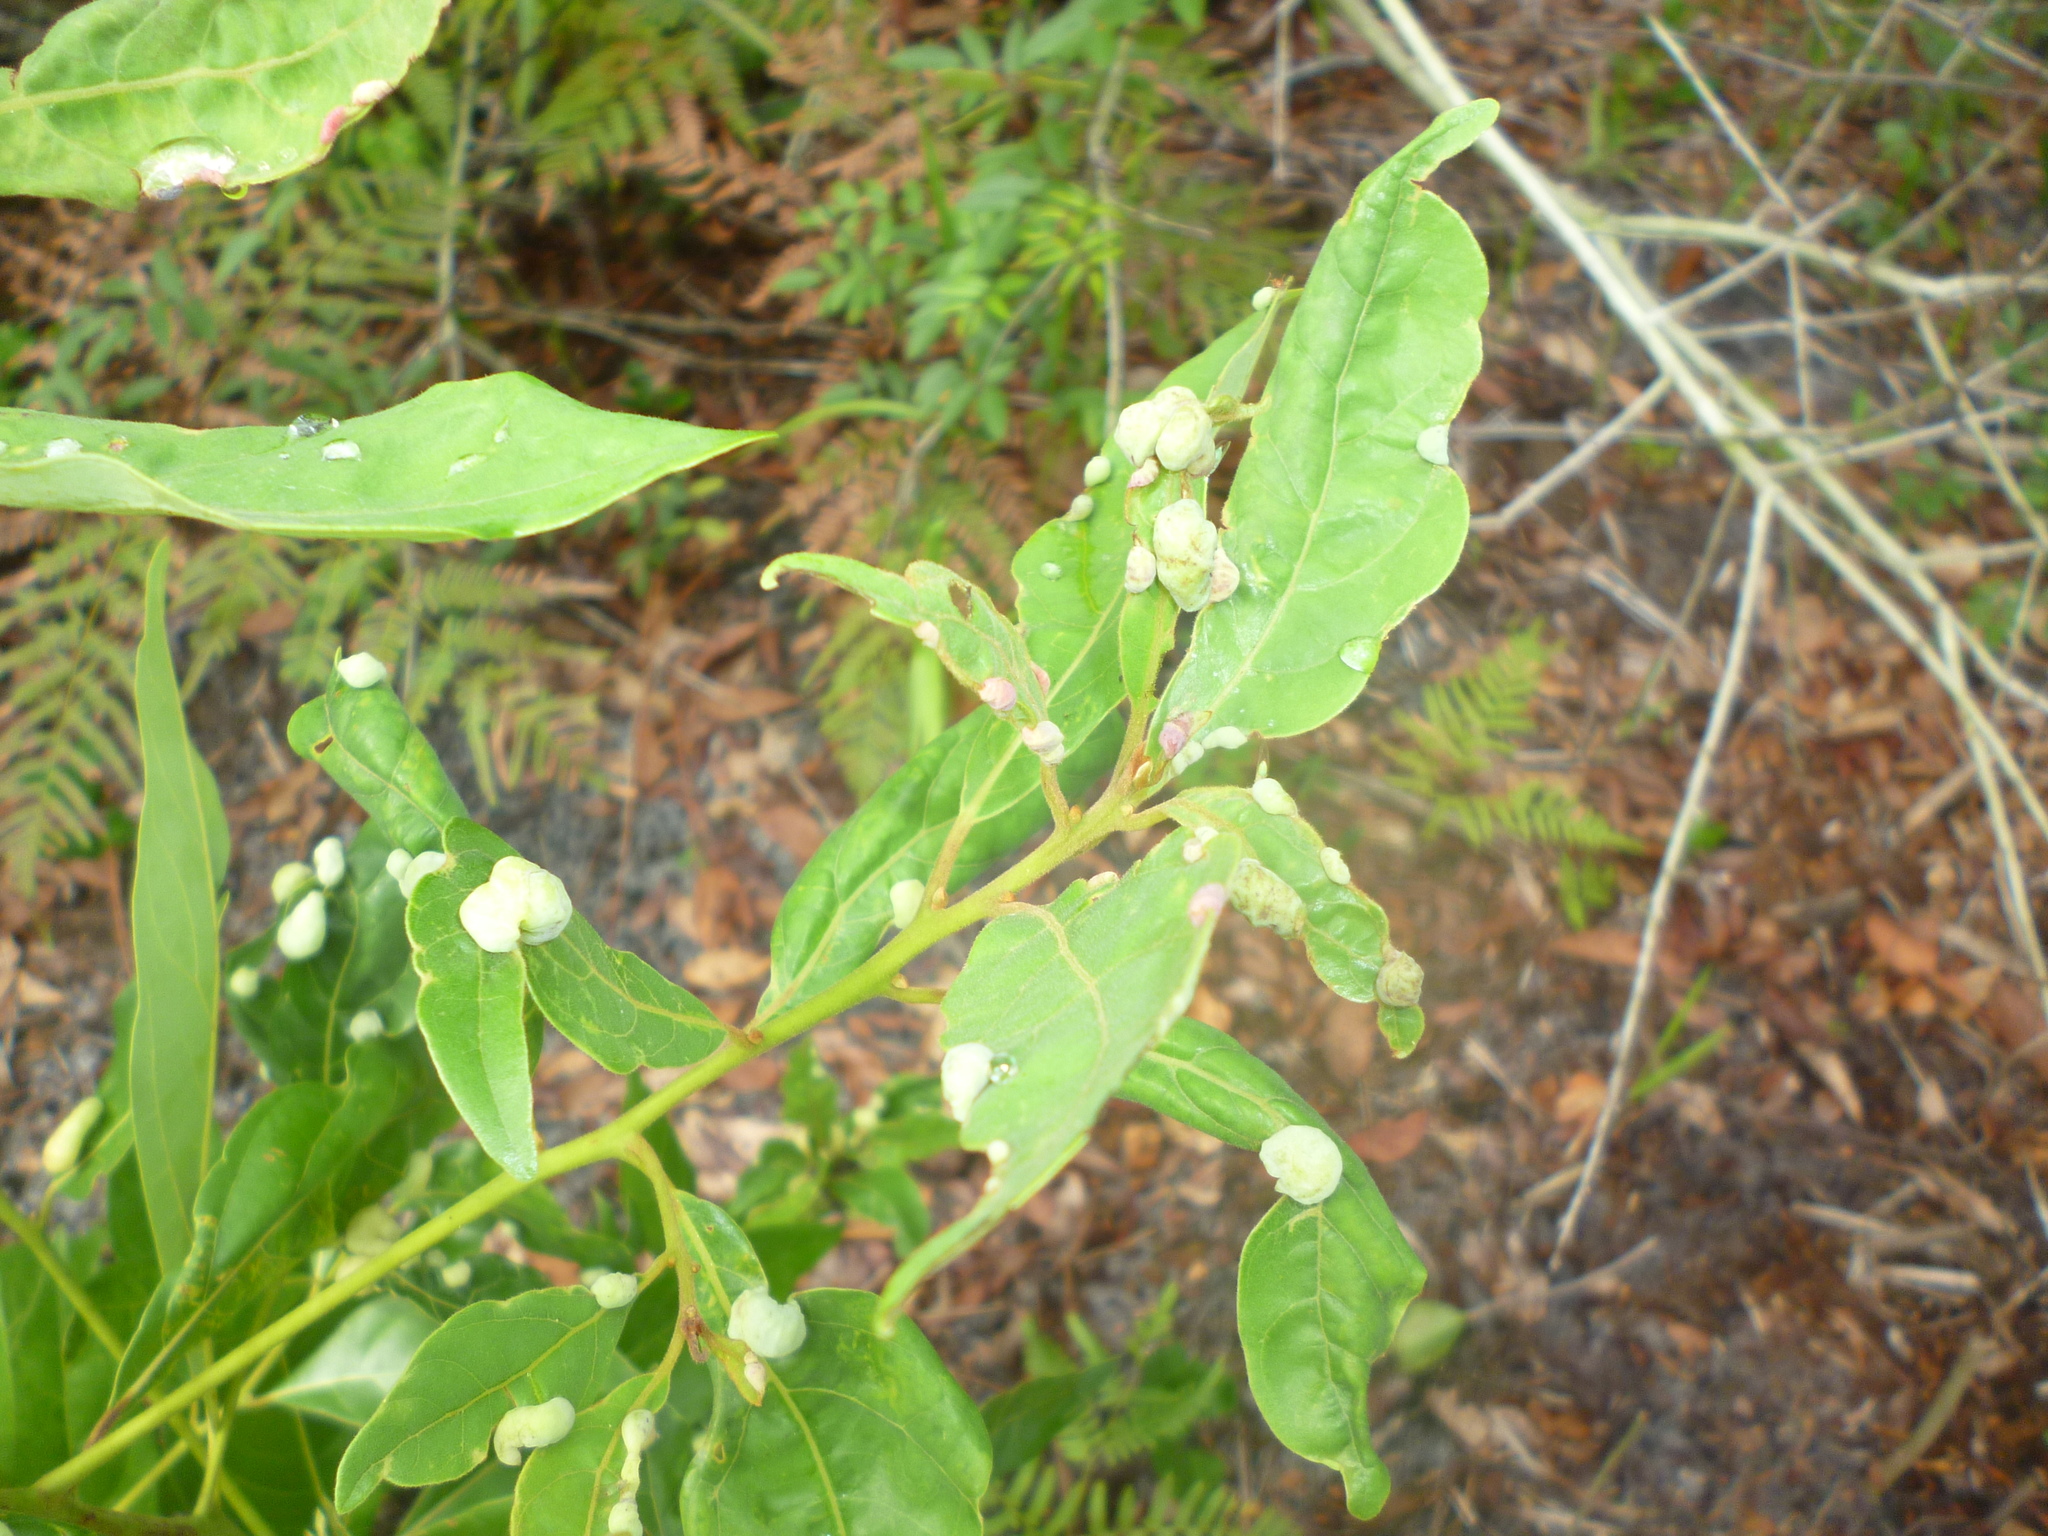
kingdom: Animalia
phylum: Arthropoda
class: Insecta
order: Hemiptera
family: Triozidae
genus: Trioza
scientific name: Trioza magnoliae
